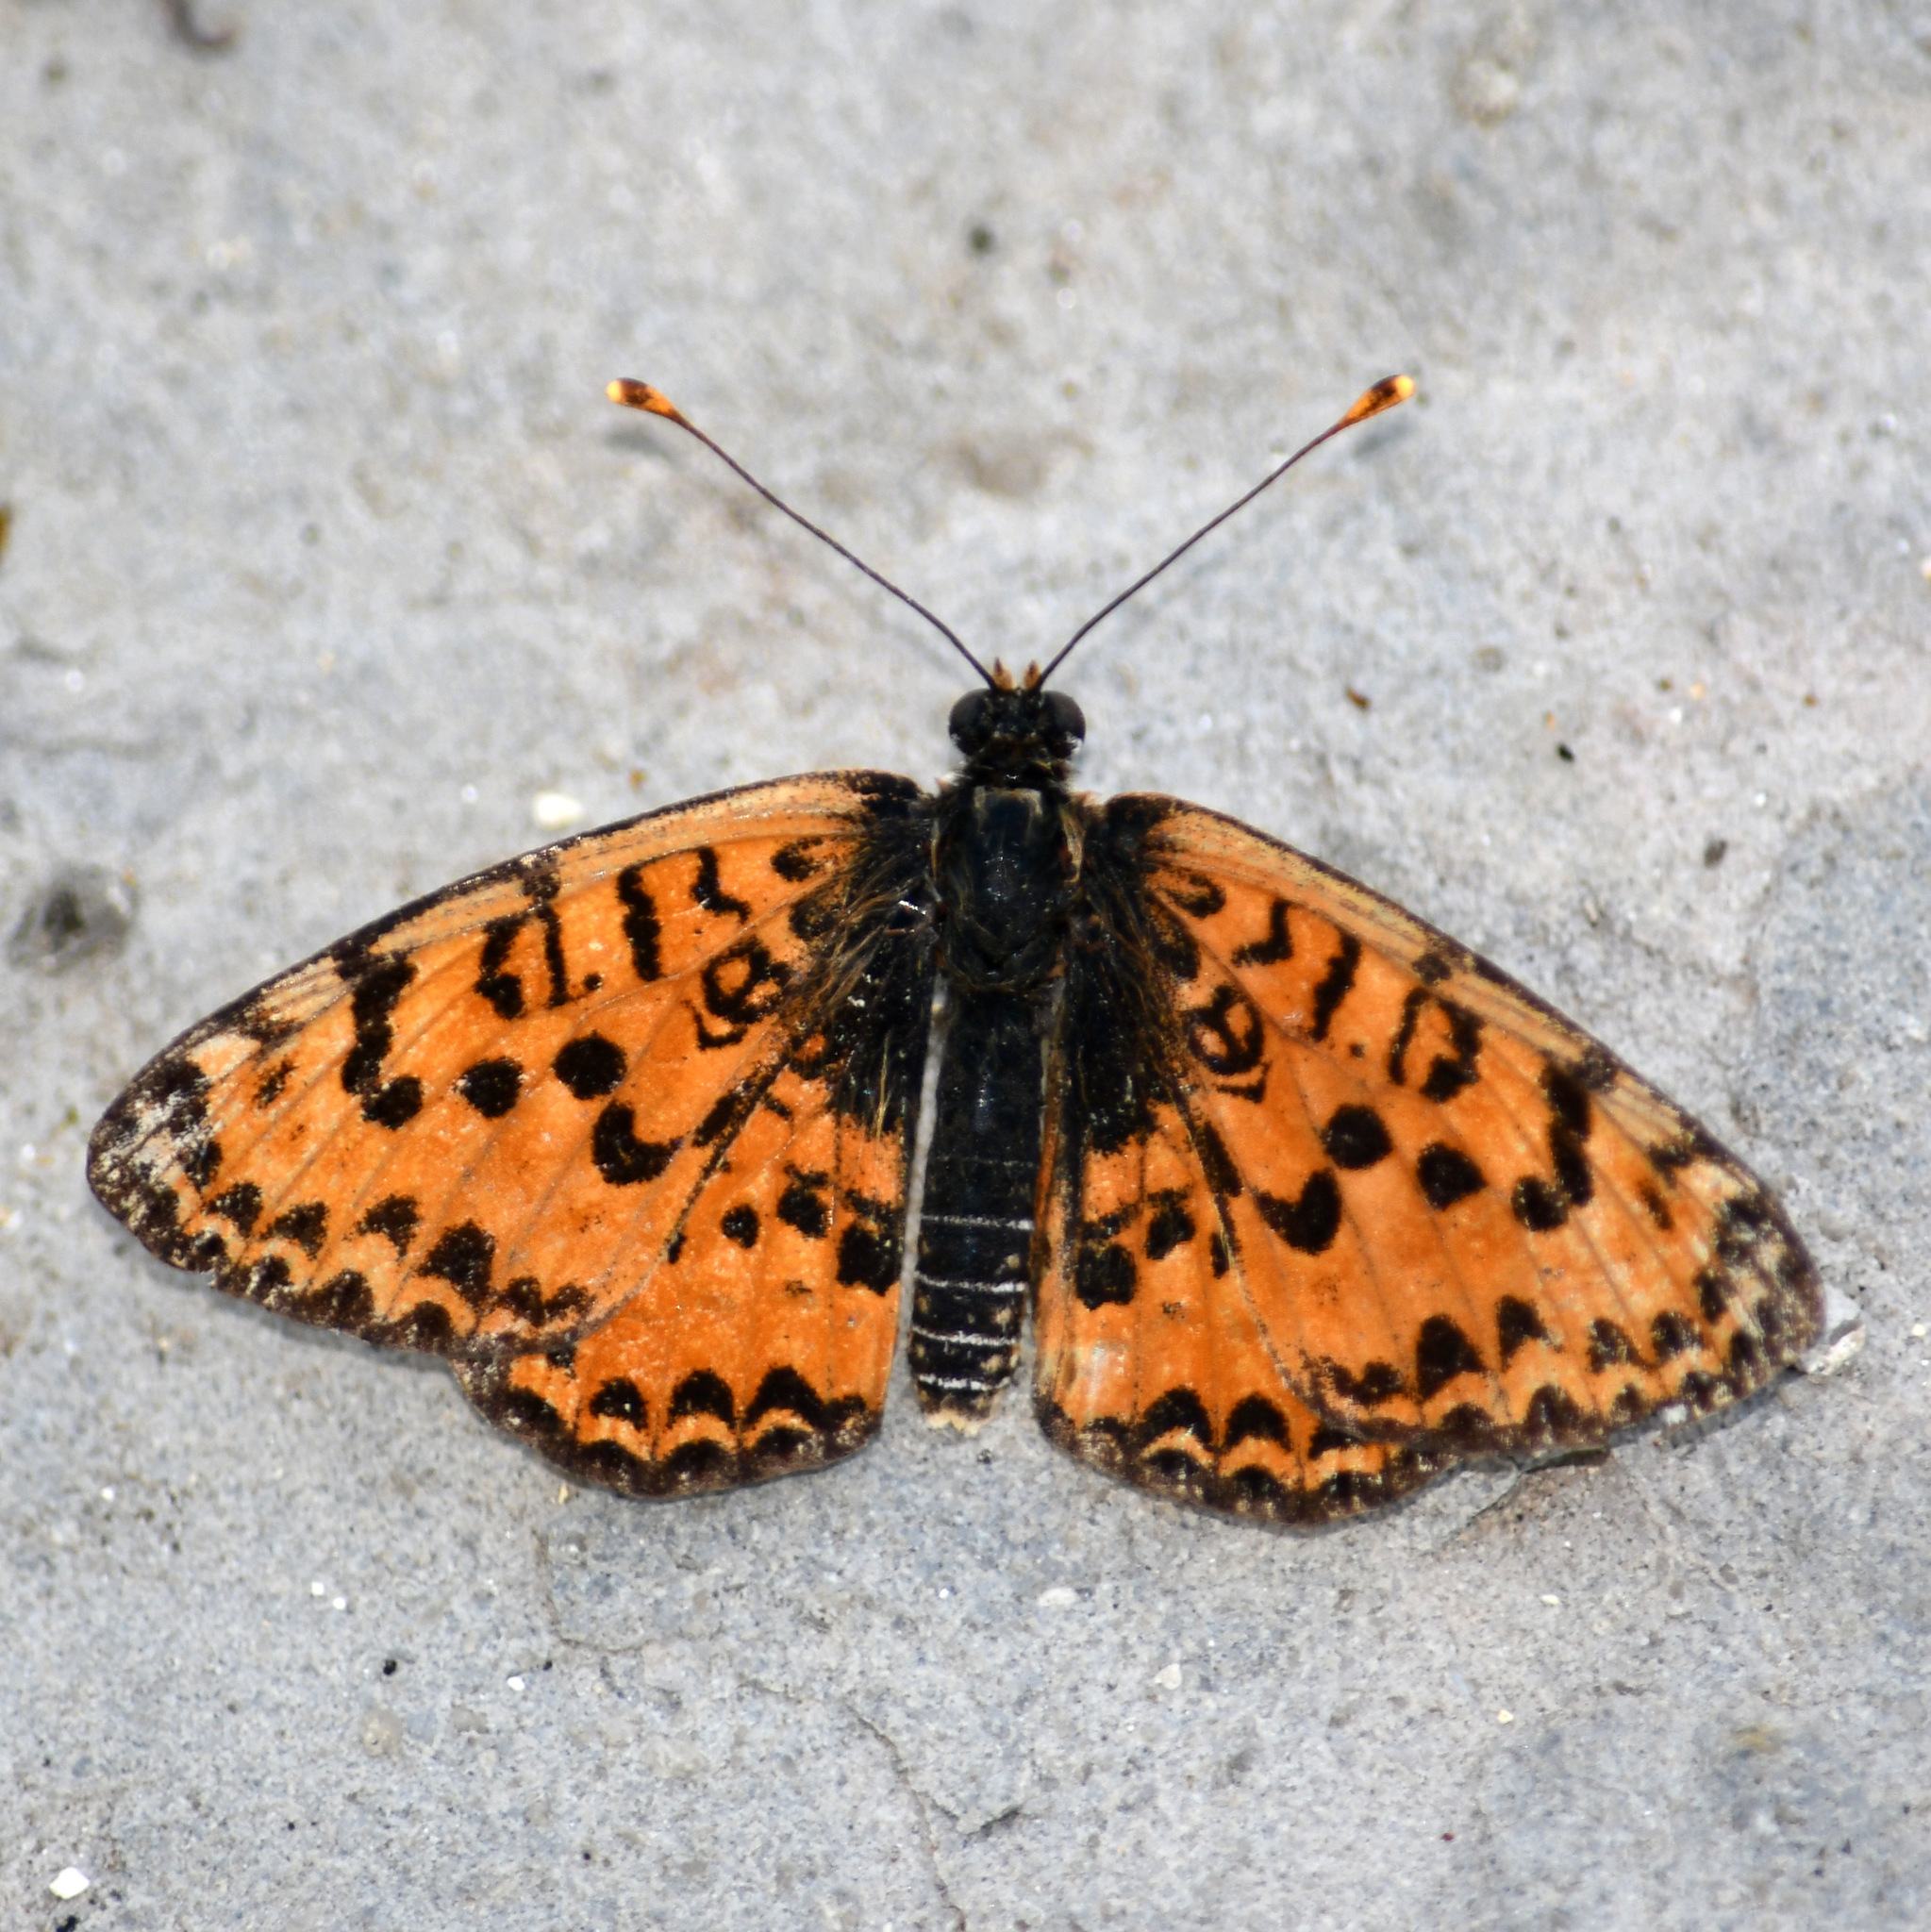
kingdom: Animalia
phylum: Arthropoda
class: Insecta
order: Lepidoptera
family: Nymphalidae
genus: Melitaea
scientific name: Melitaea didyma
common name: Spotted fritillary
